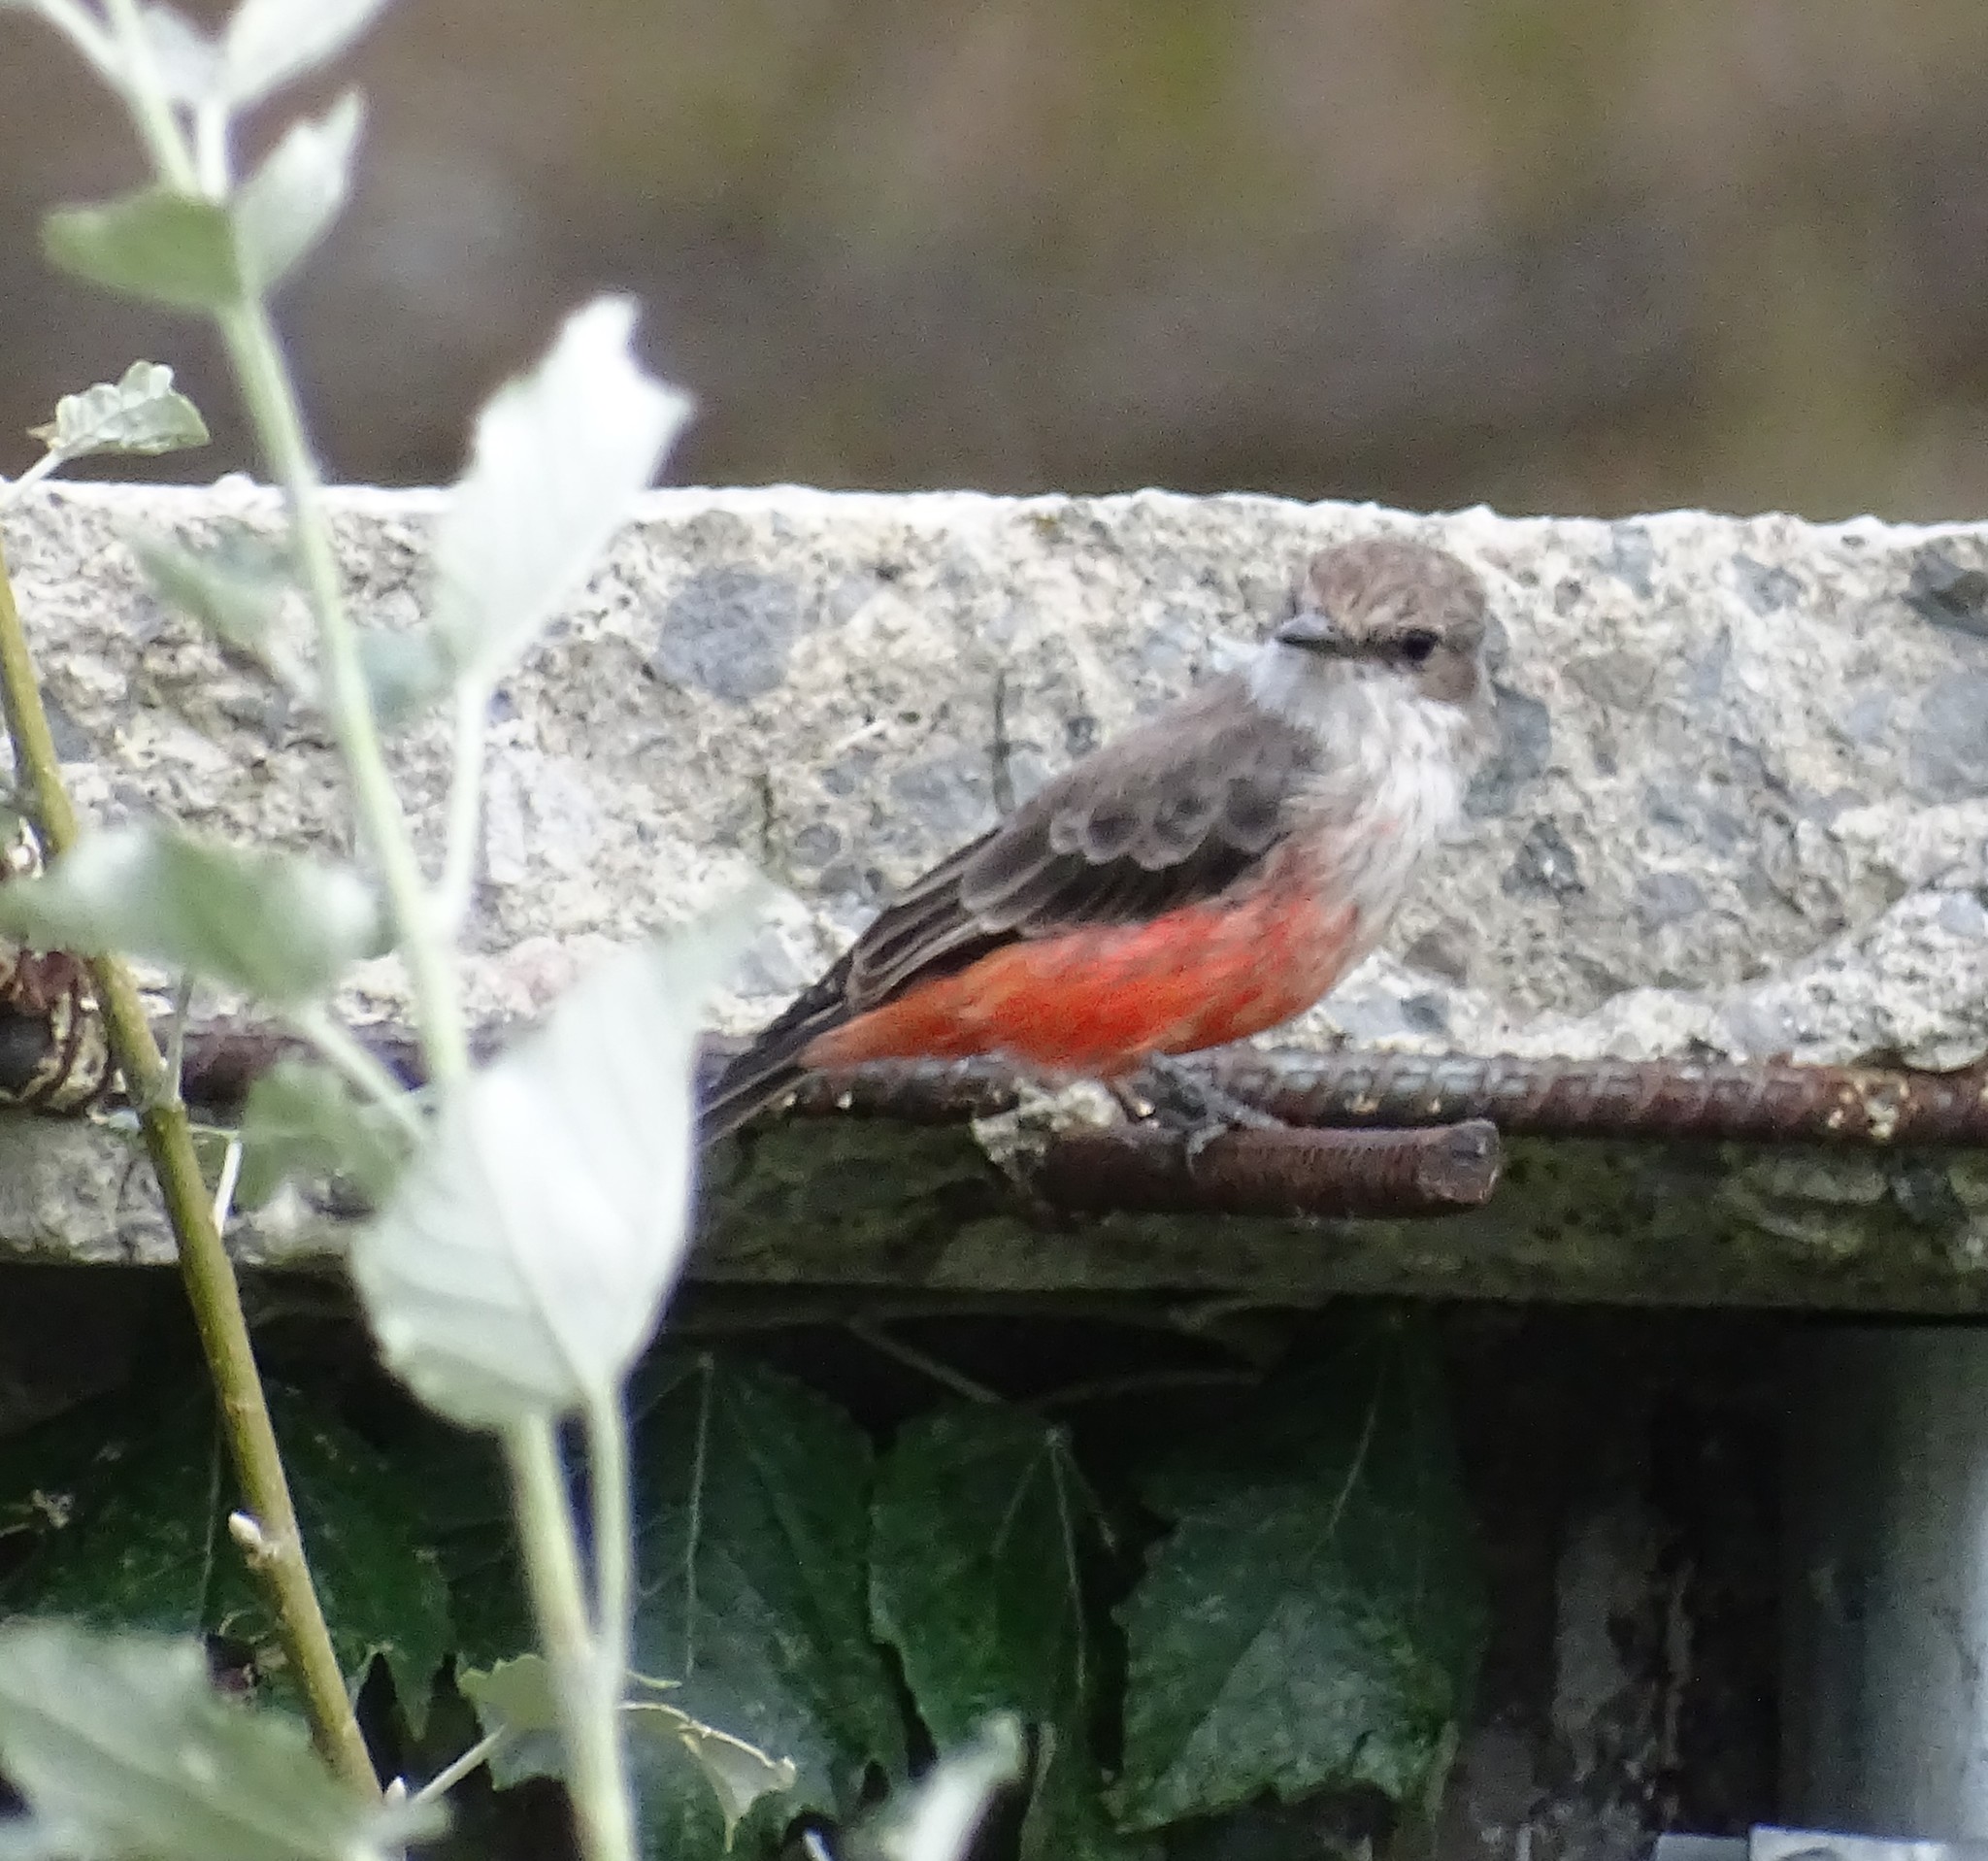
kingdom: Animalia
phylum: Chordata
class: Aves
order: Passeriformes
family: Tyrannidae
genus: Pyrocephalus
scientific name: Pyrocephalus rubinus
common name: Vermilion flycatcher
